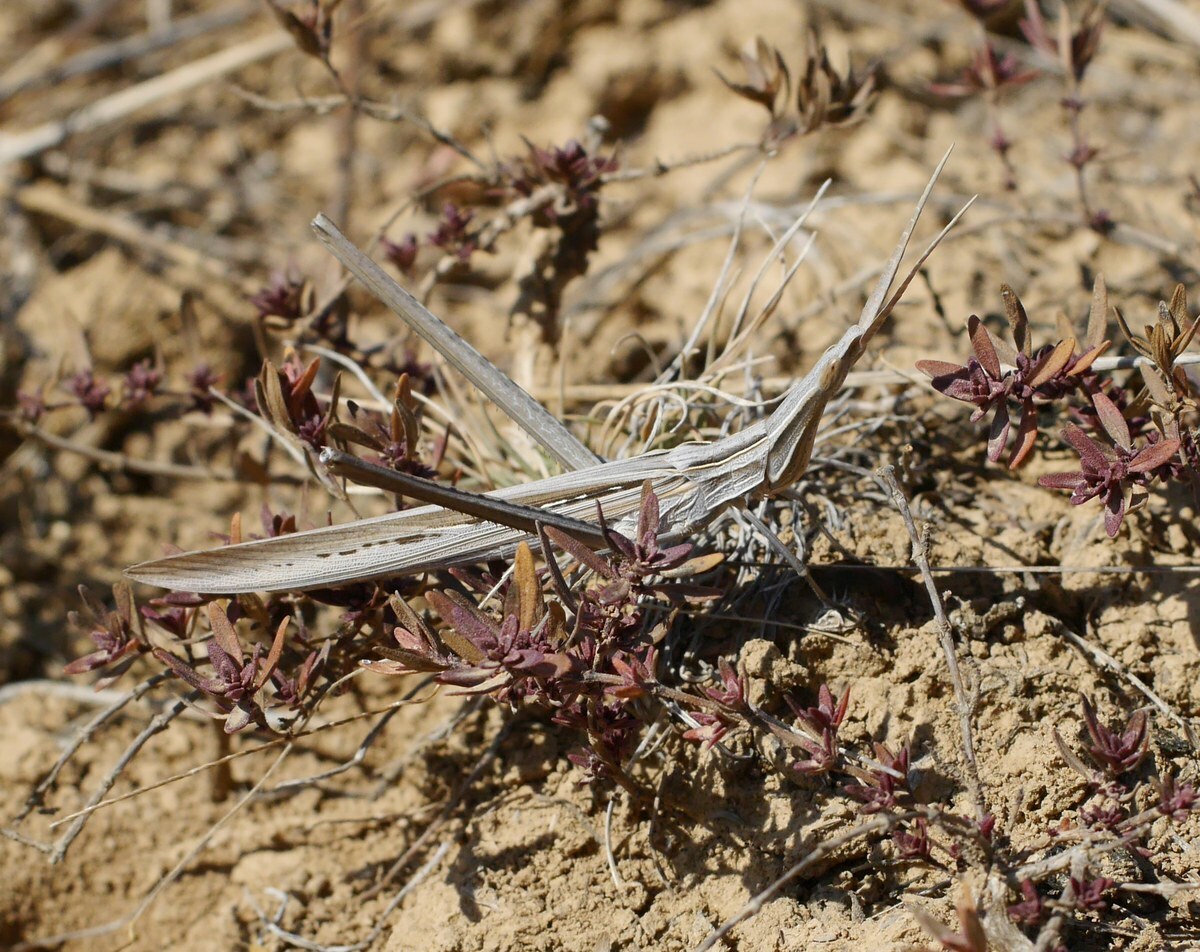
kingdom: Animalia
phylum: Arthropoda
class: Insecta
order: Orthoptera
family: Acrididae
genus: Acrida
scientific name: Acrida ungarica
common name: Common cone-headed grasshopper
